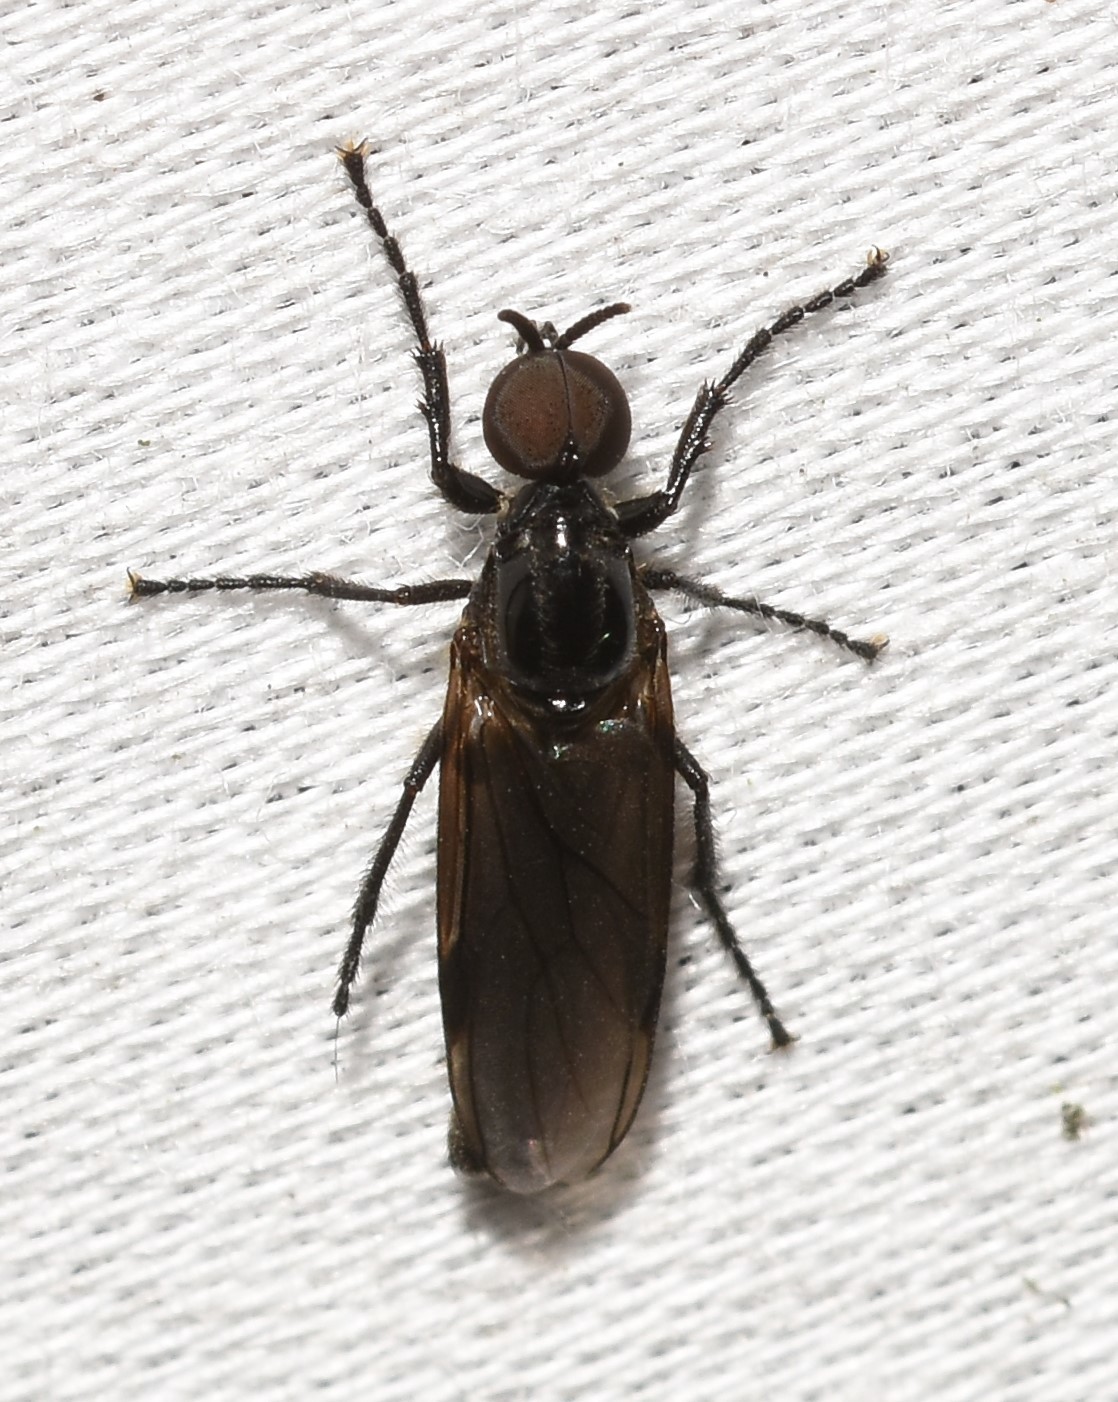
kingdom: Animalia
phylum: Arthropoda
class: Insecta
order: Diptera
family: Bibionidae
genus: Dilophus
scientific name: Dilophus serotinus
